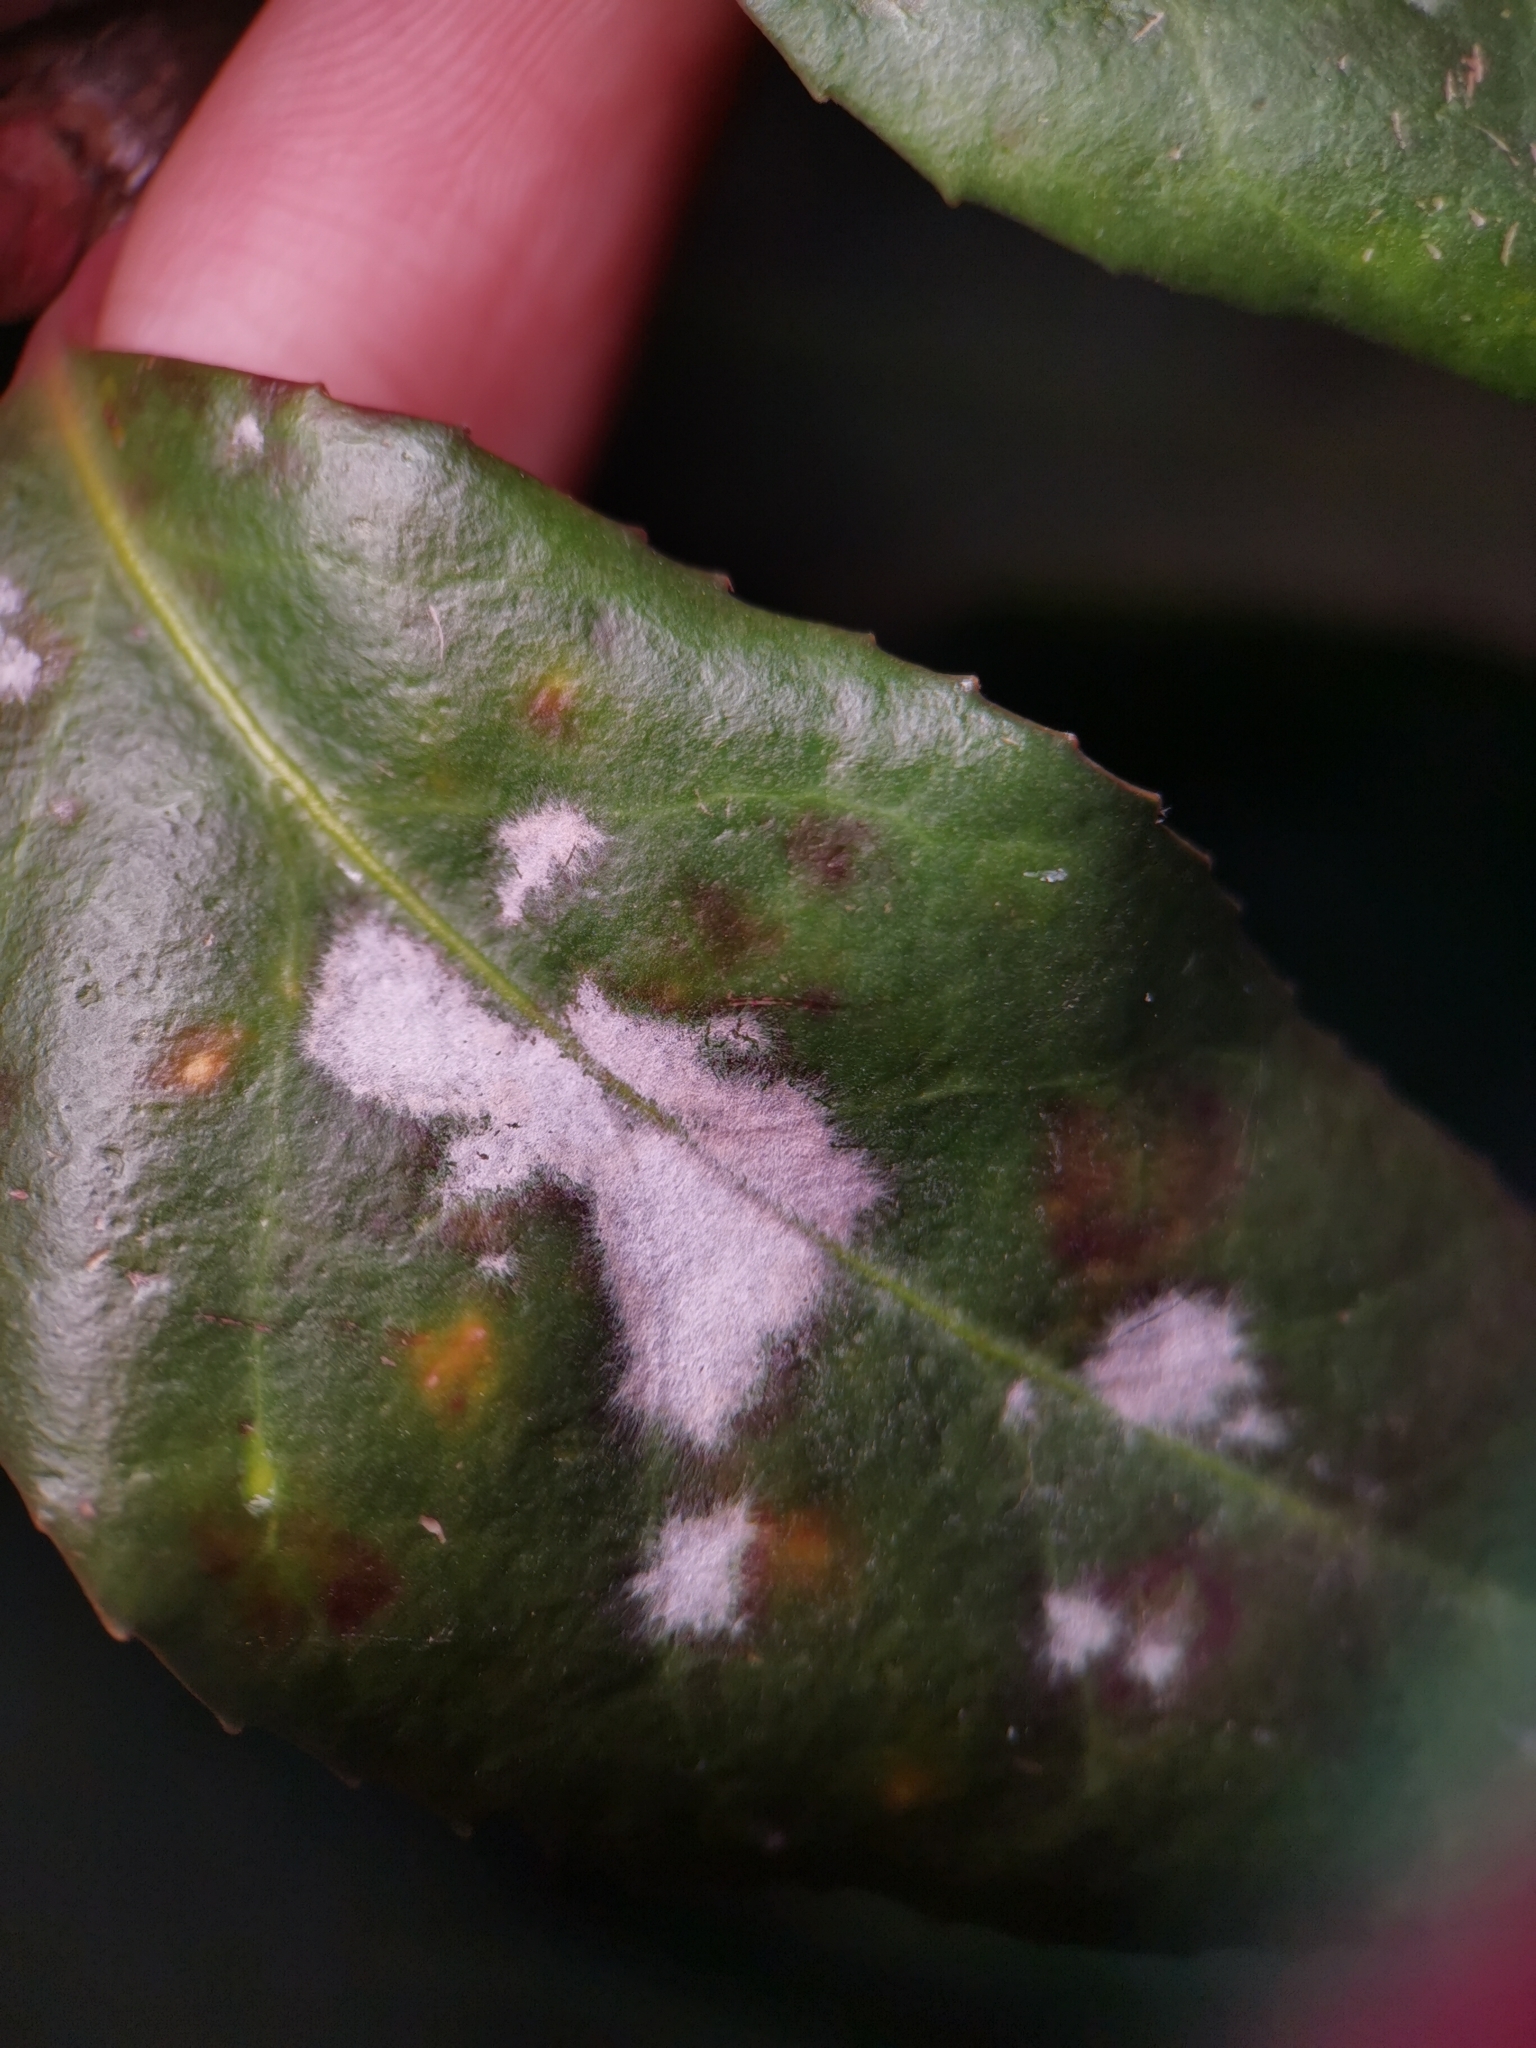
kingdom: Fungi
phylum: Ascomycota
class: Leotiomycetes
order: Helotiales
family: Erysiphaceae
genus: Erysiphe
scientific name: Erysiphe euonymicola
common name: Spindletree mildew
